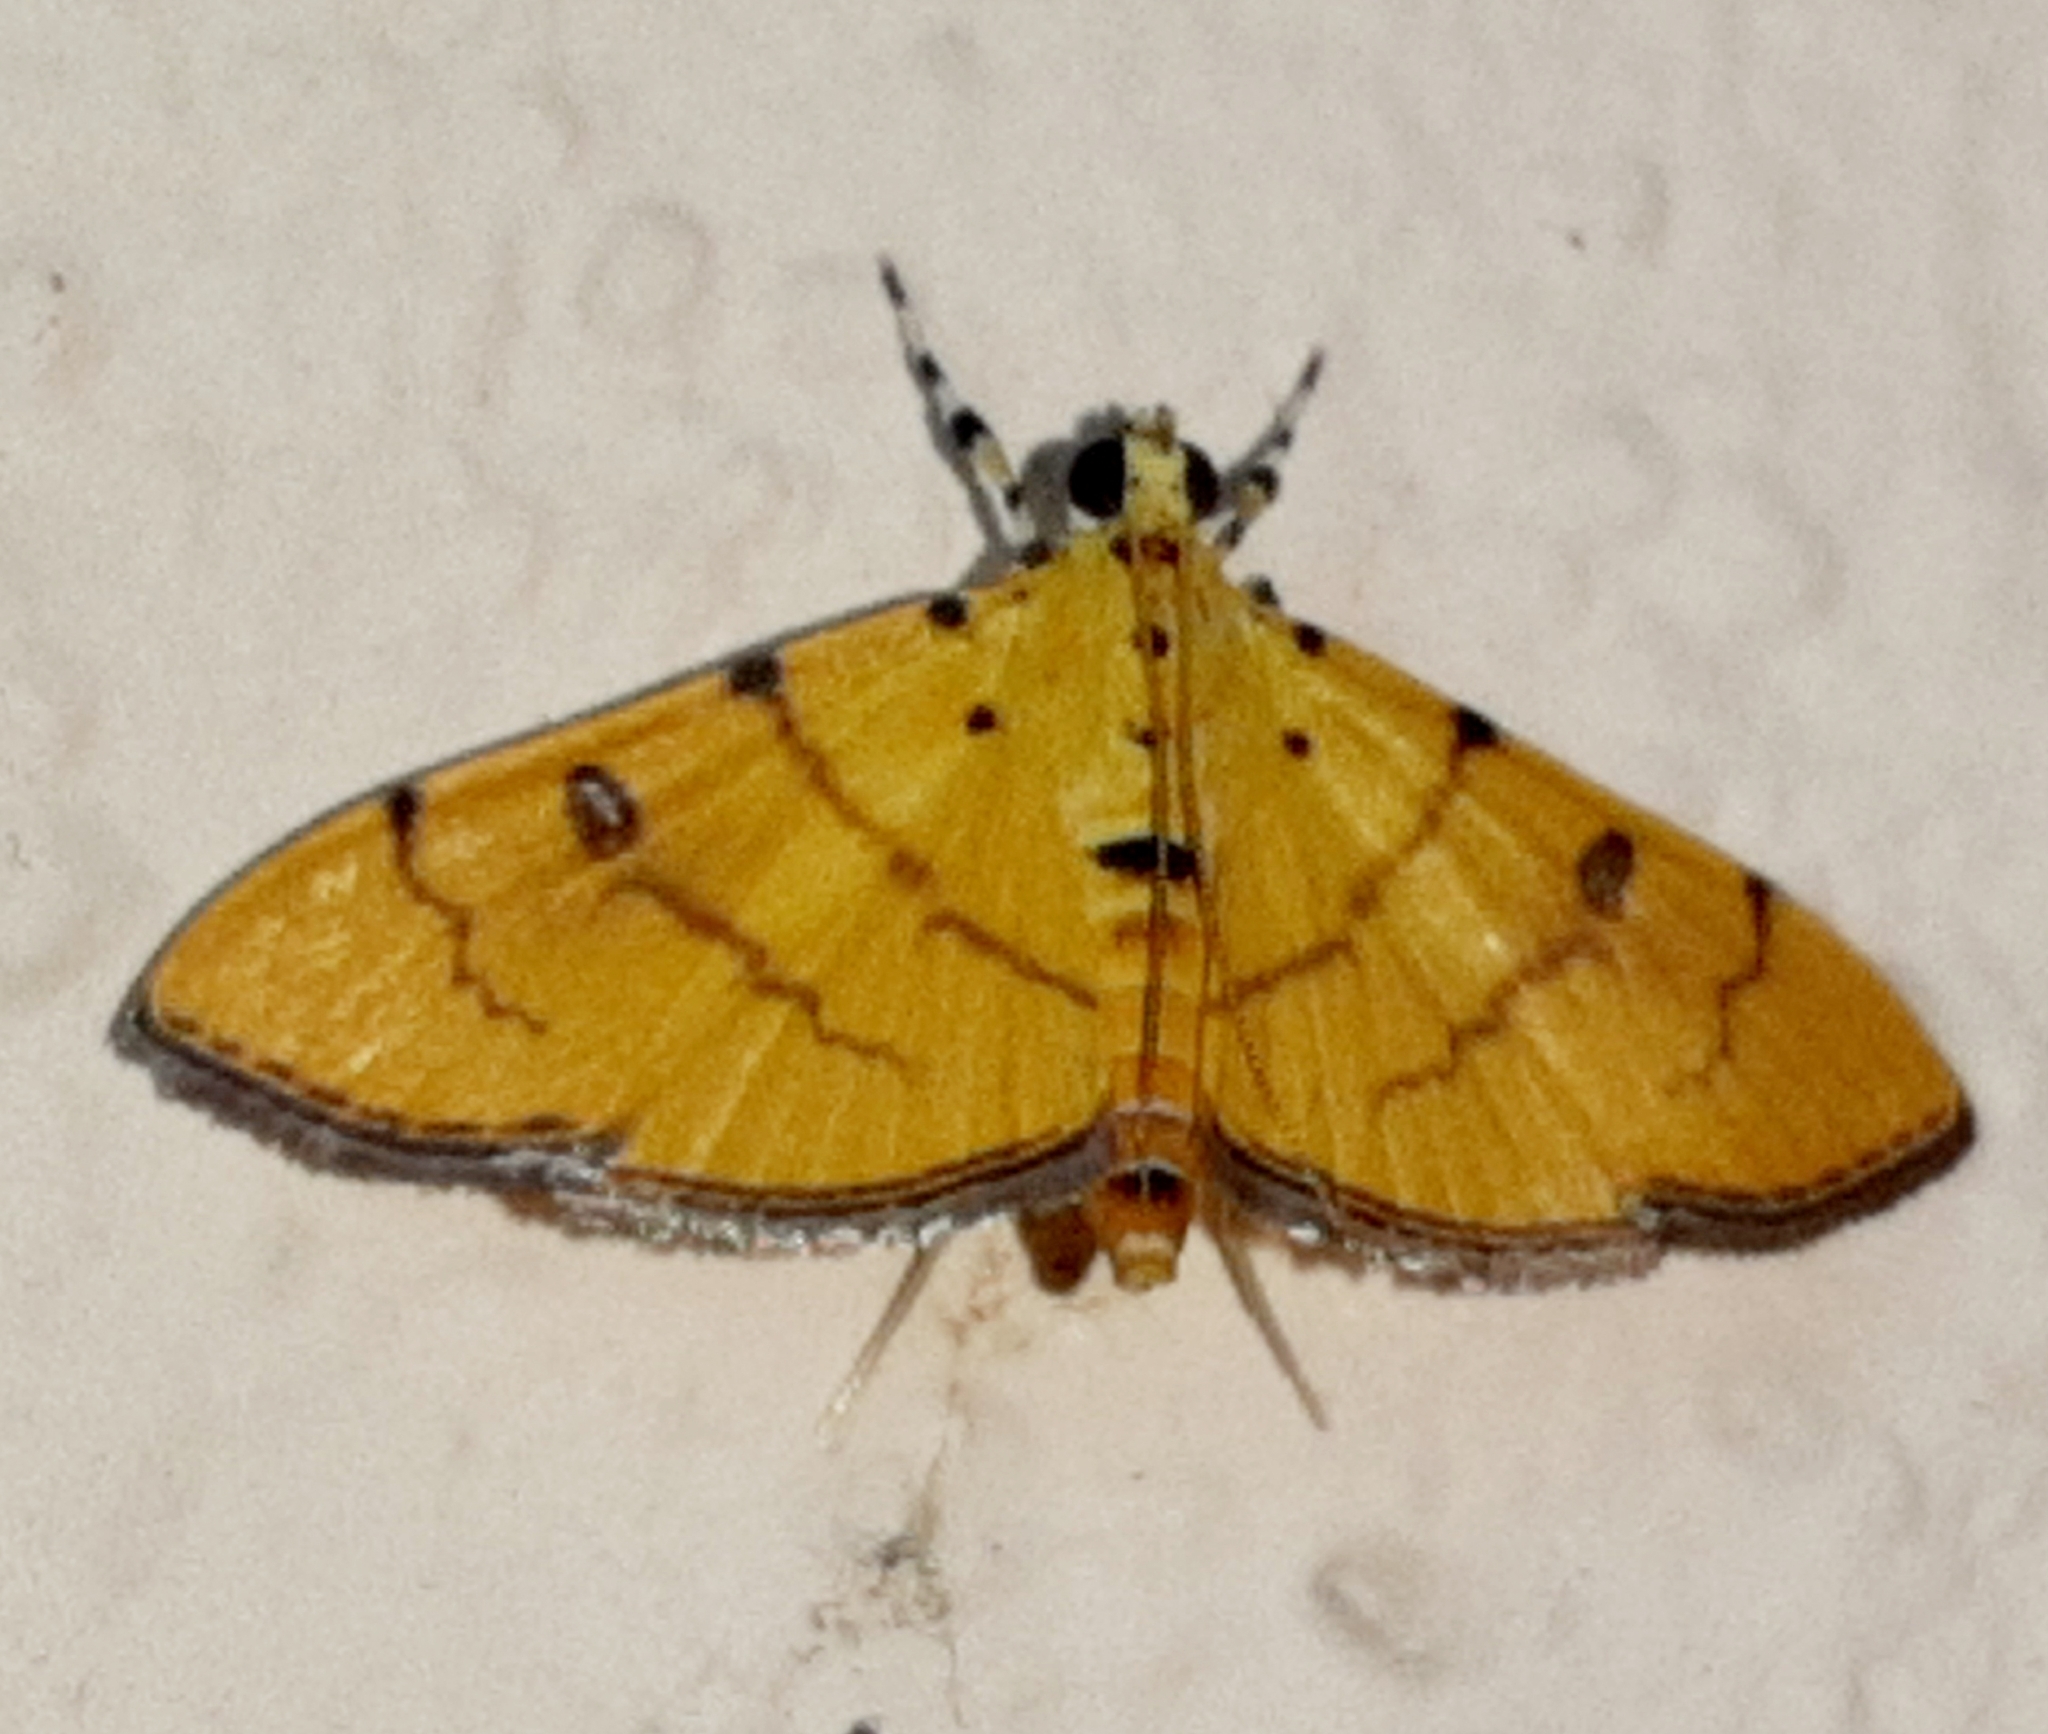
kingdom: Animalia
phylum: Arthropoda
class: Insecta
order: Lepidoptera
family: Crambidae
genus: Phaedropsis
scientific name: Phaedropsis alitemeralis
